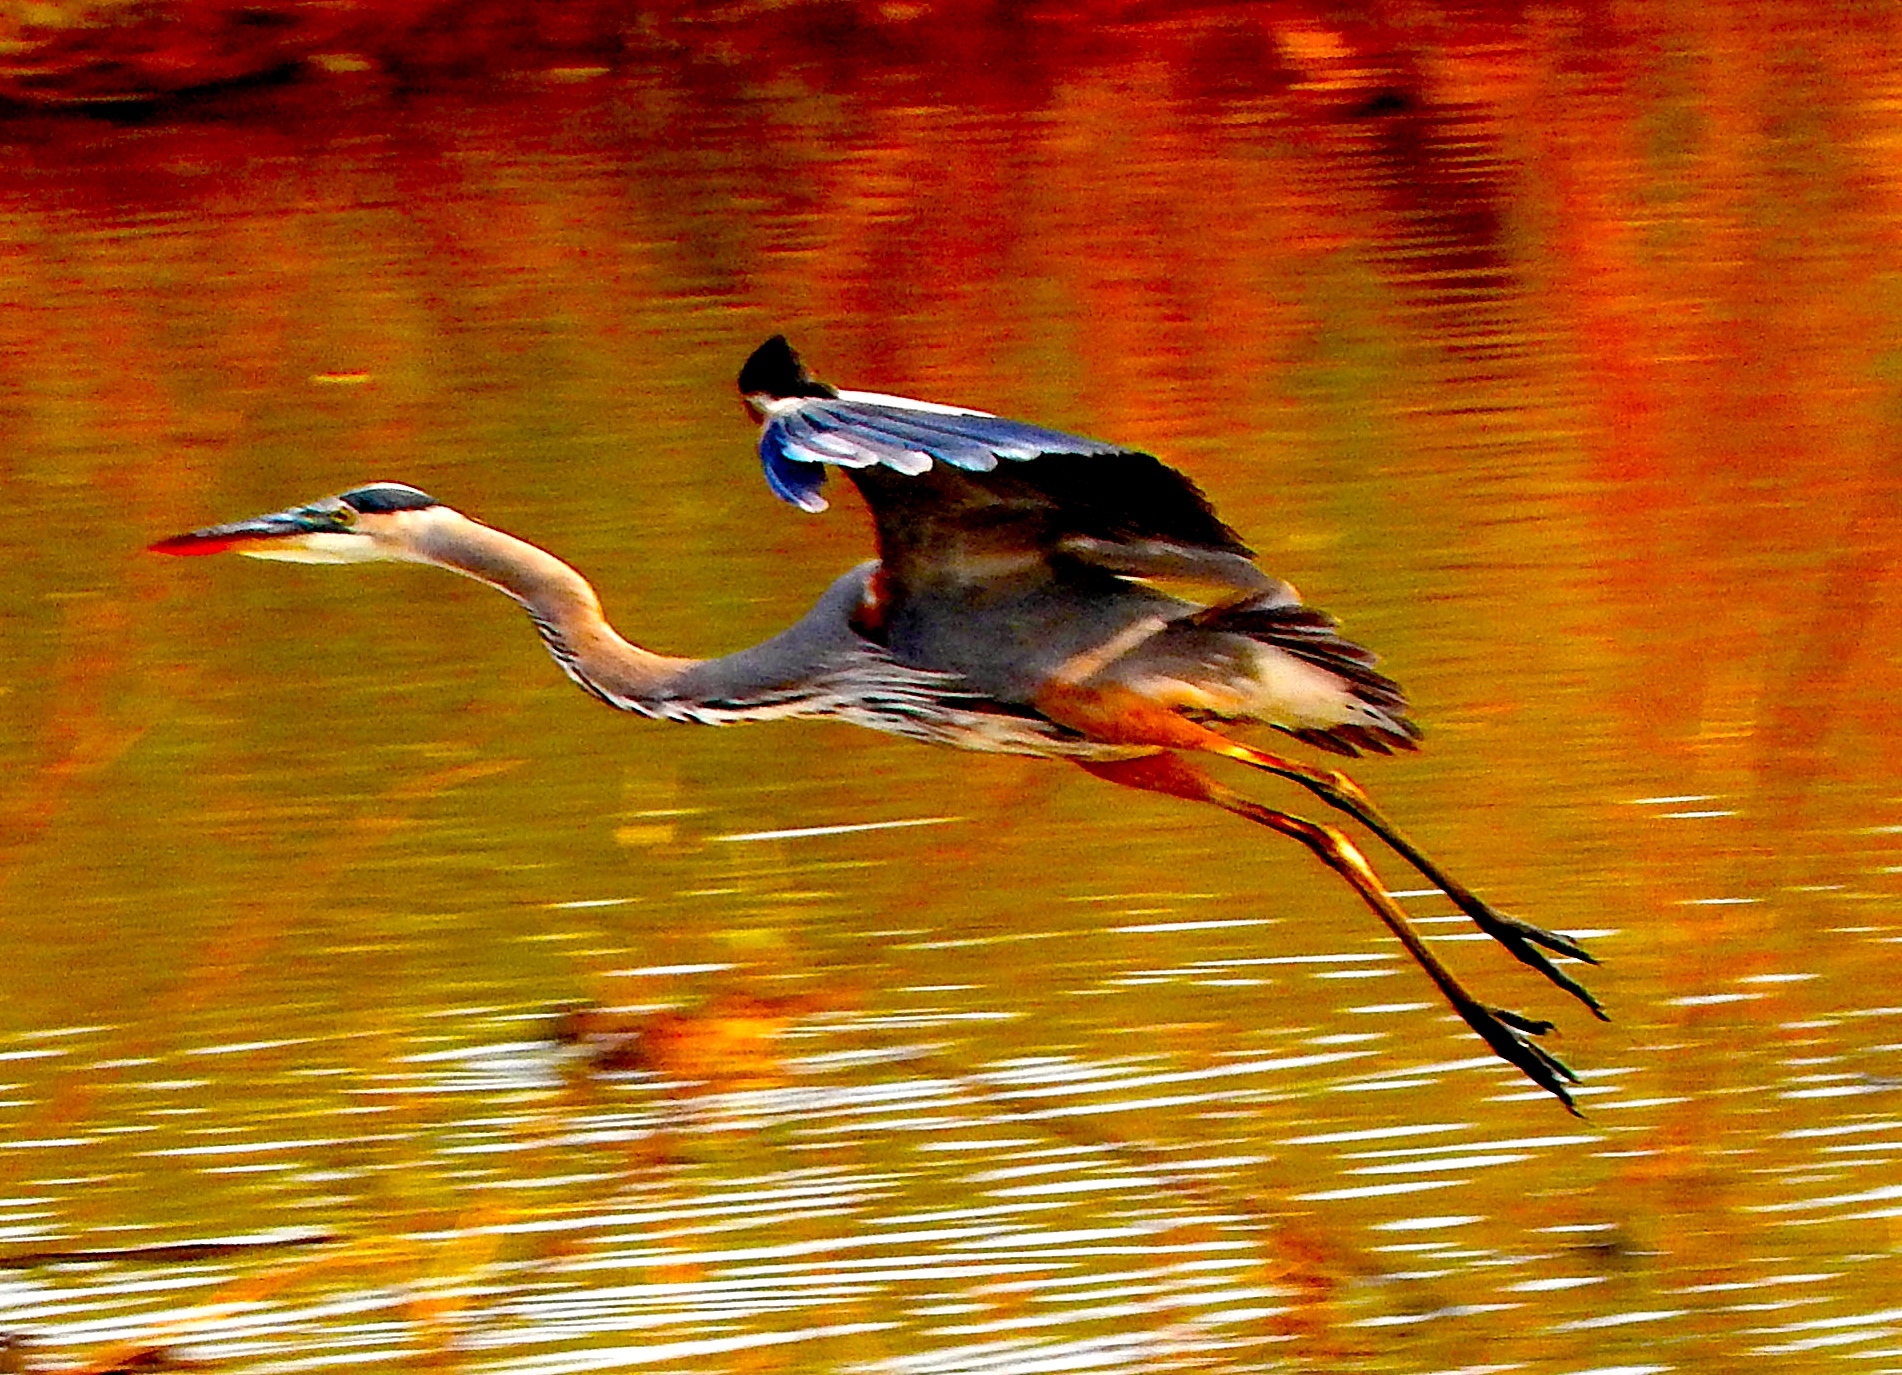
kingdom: Animalia
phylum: Chordata
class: Aves
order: Pelecaniformes
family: Ardeidae
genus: Ardea
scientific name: Ardea herodias
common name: Great blue heron
